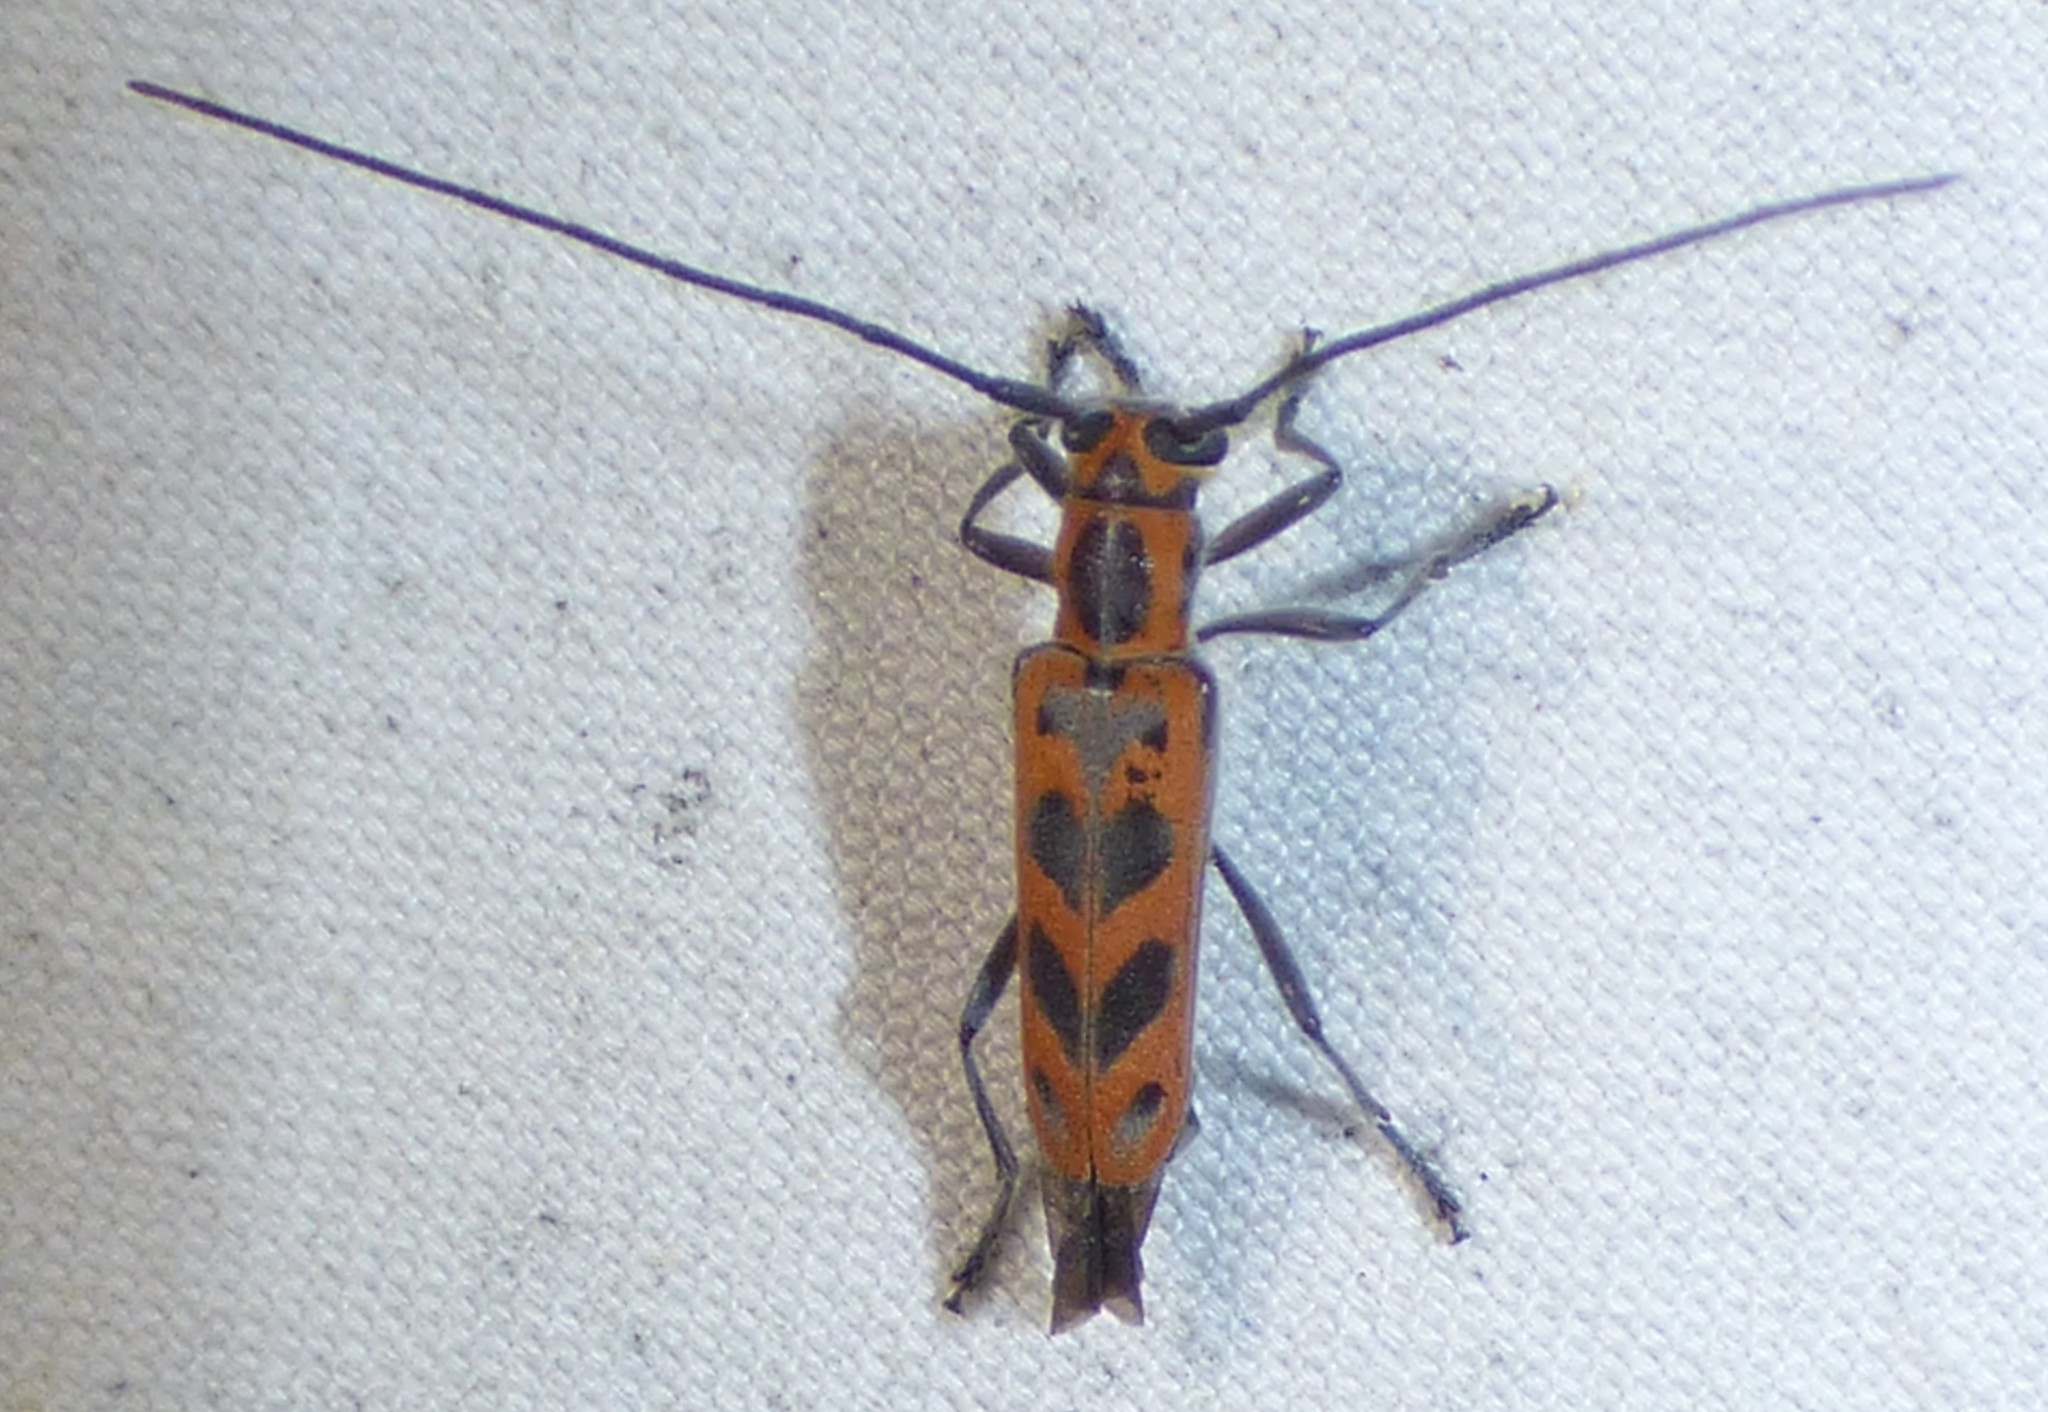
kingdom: Animalia
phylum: Arthropoda
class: Insecta
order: Coleoptera
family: Cerambycidae
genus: Saperda
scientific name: Saperda tridentata
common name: Elm borer
